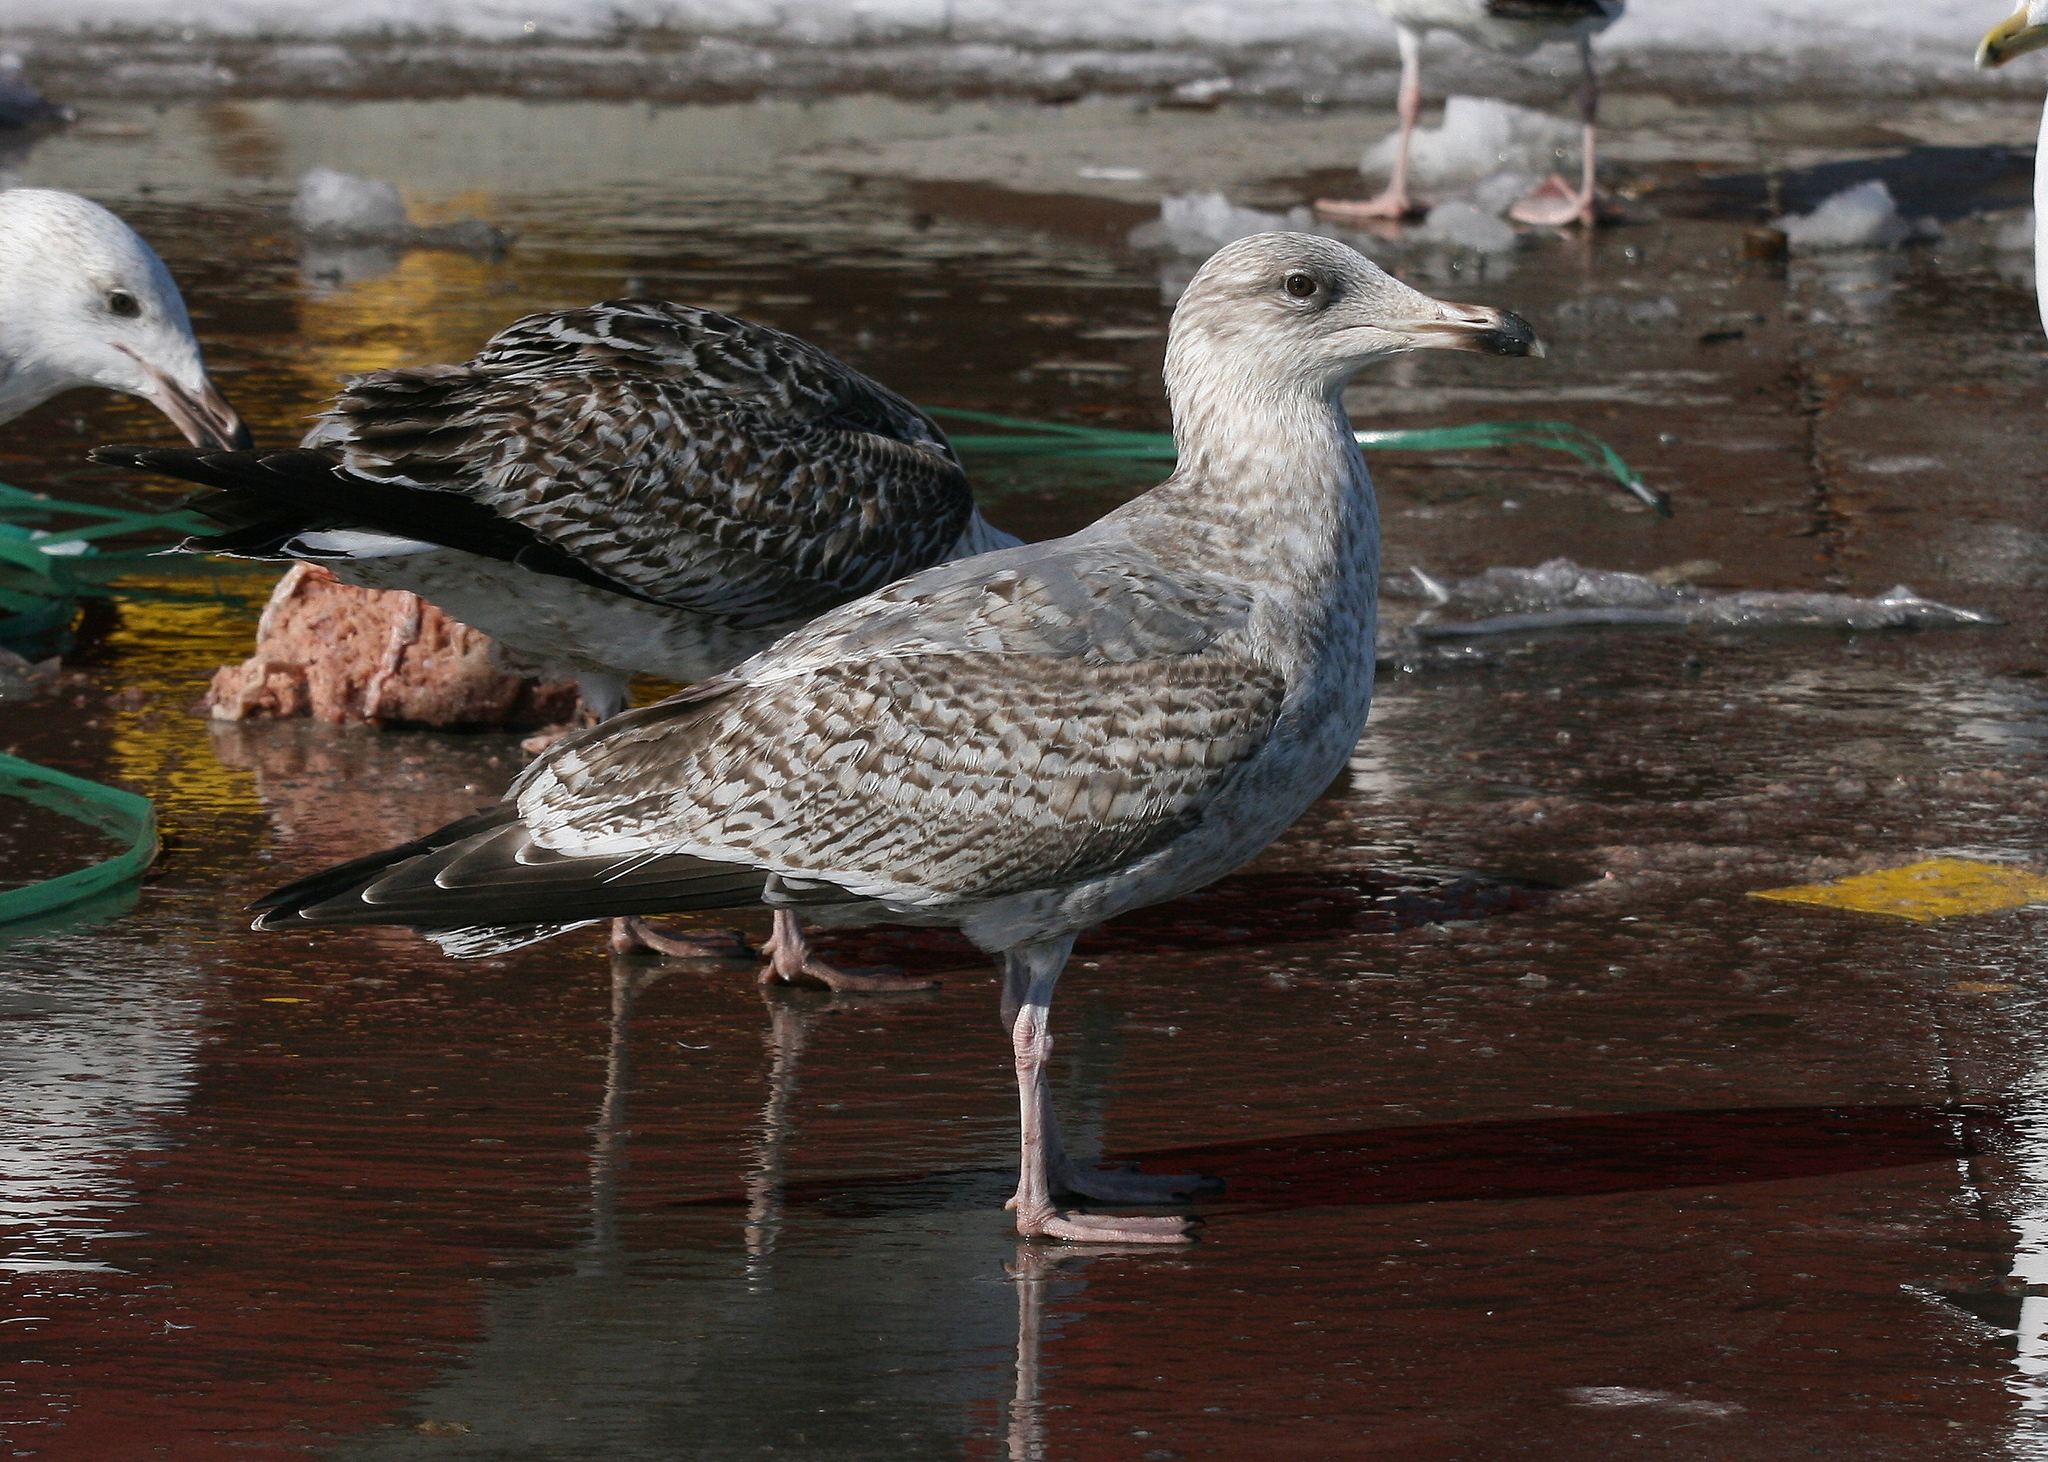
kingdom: Animalia
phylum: Chordata
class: Aves
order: Charadriiformes
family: Laridae
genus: Larus
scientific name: Larus argentatus
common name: Herring gull
